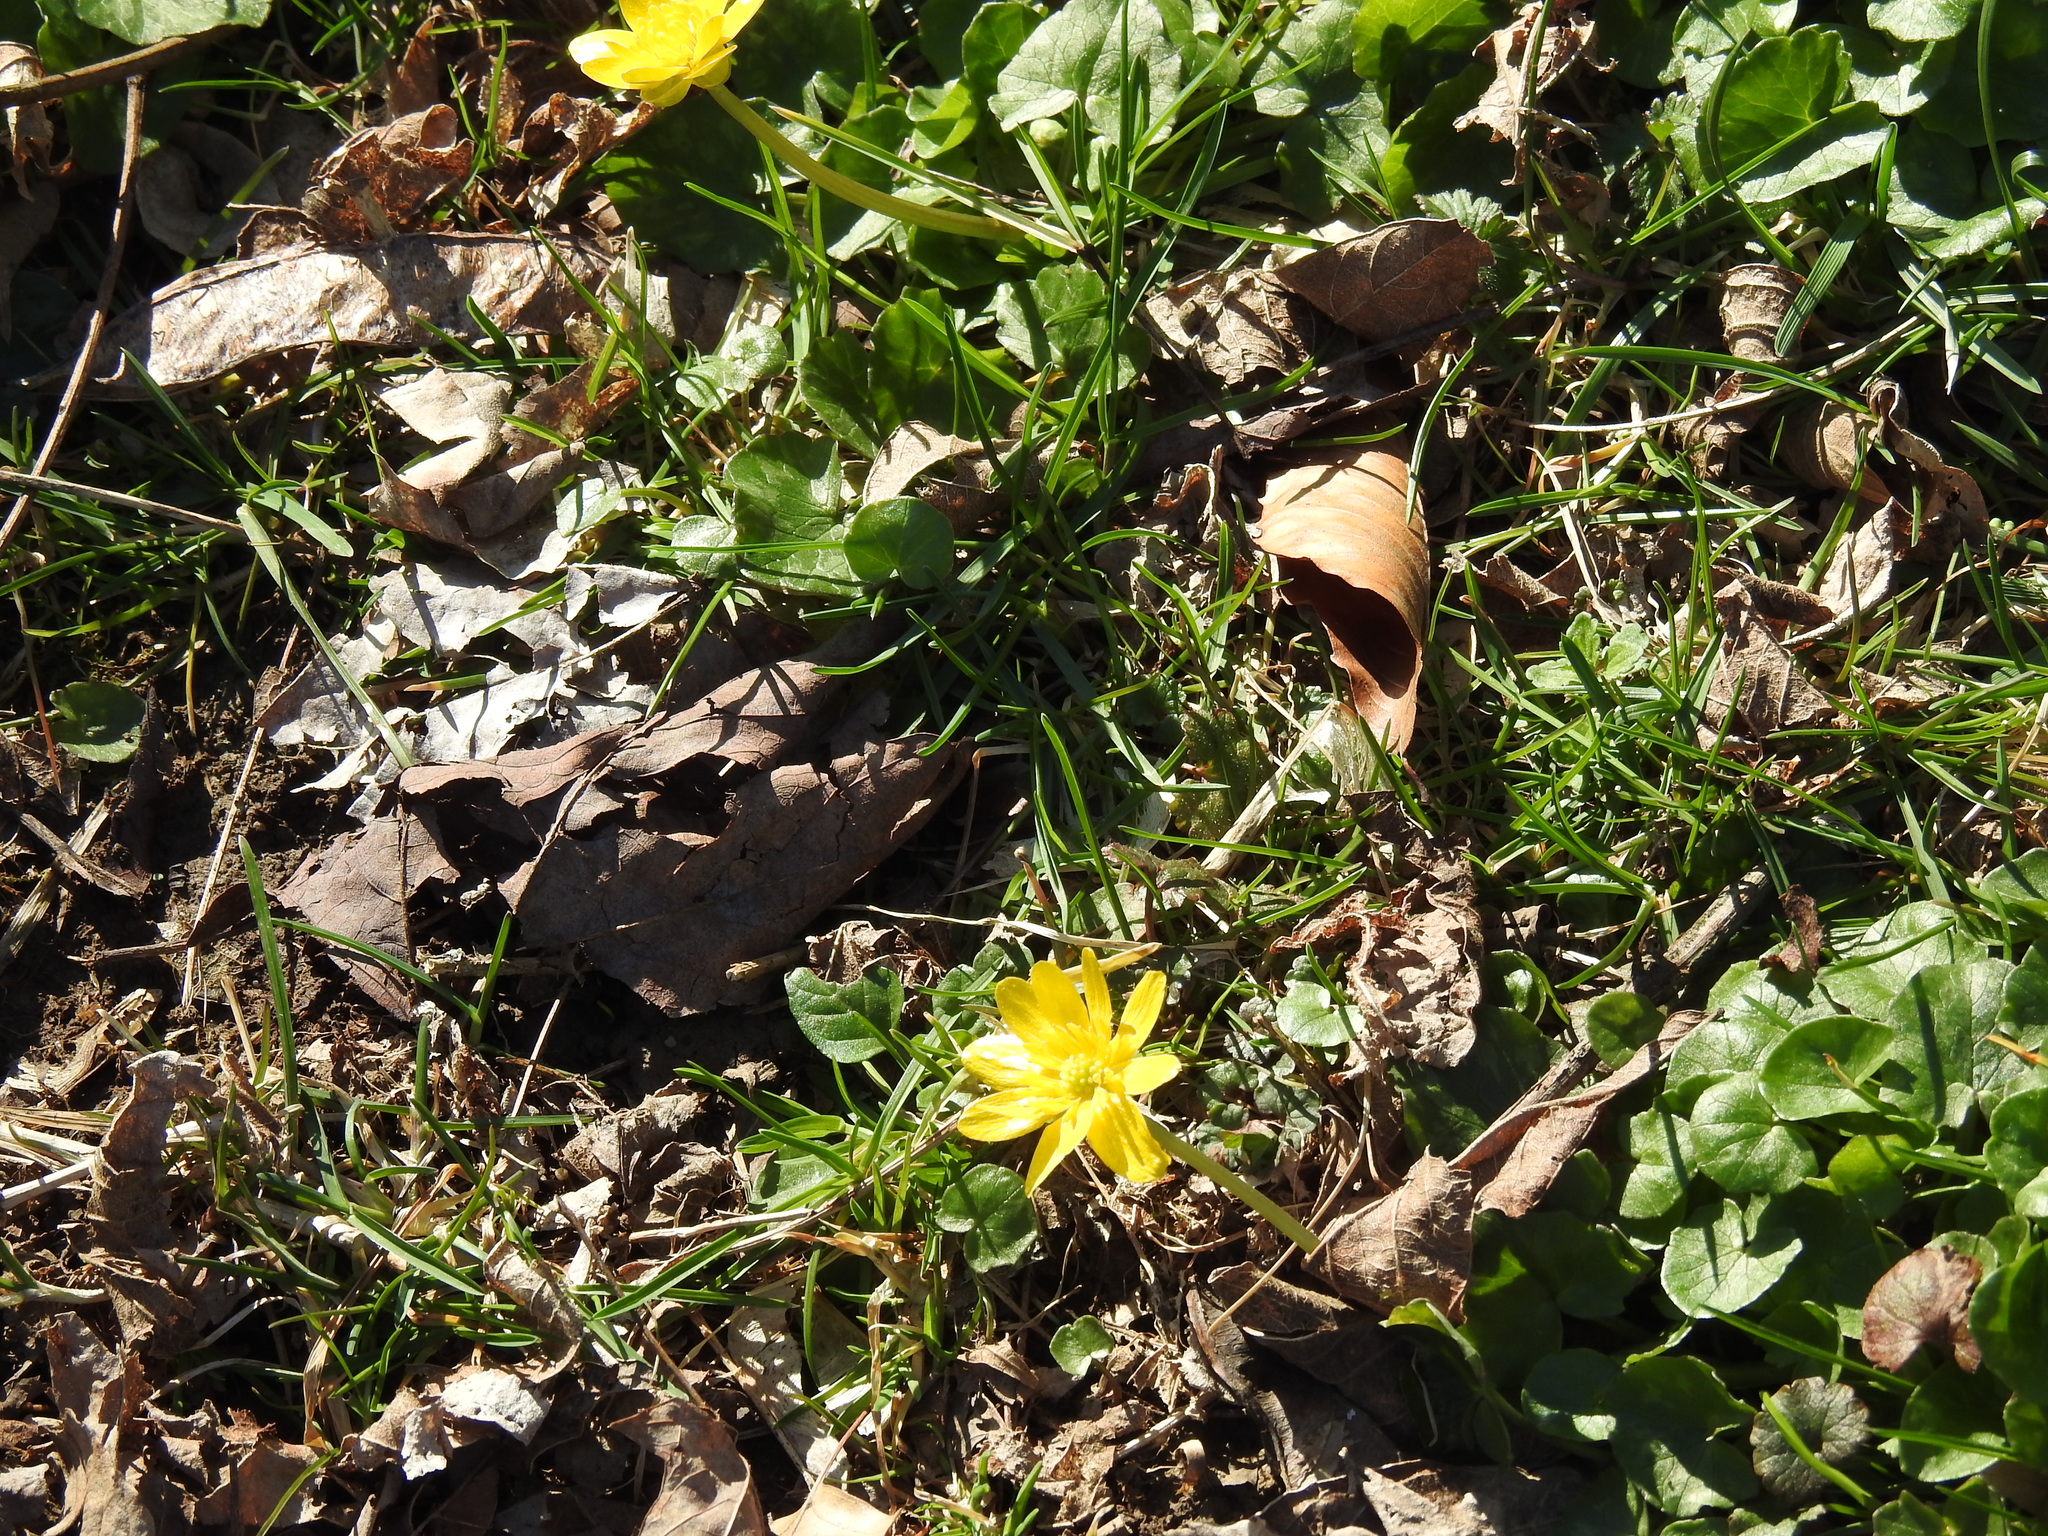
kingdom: Plantae
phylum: Tracheophyta
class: Magnoliopsida
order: Ranunculales
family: Ranunculaceae
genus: Ficaria
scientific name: Ficaria verna
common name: Lesser celandine
